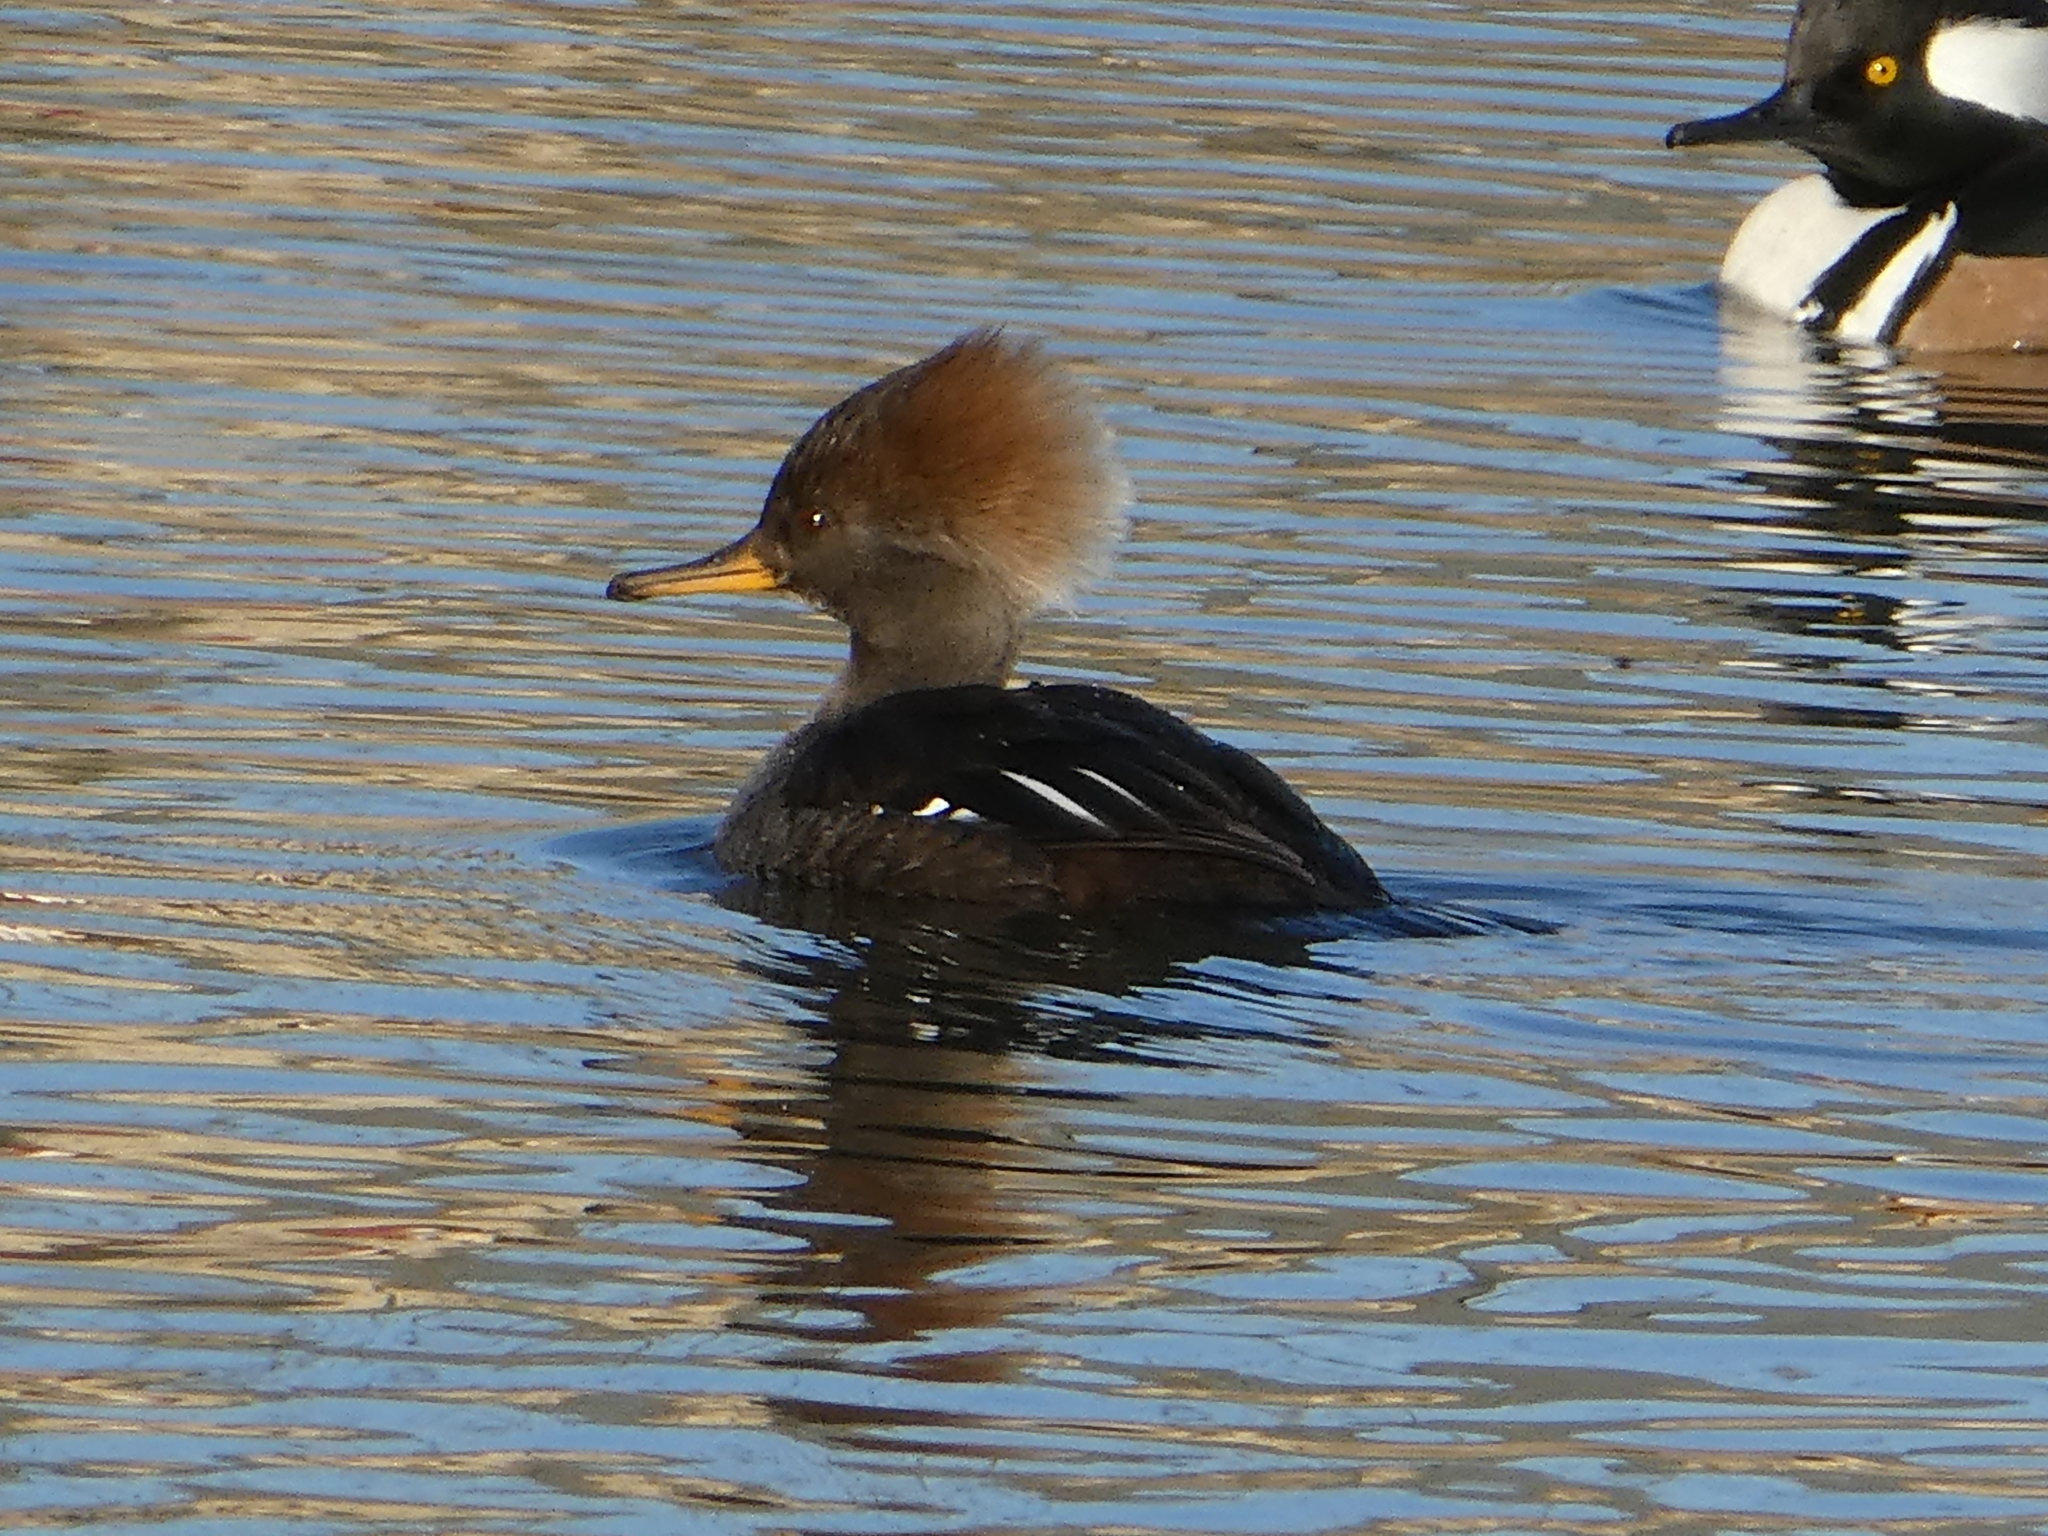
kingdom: Animalia
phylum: Chordata
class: Aves
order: Anseriformes
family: Anatidae
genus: Lophodytes
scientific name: Lophodytes cucullatus
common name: Hooded merganser
